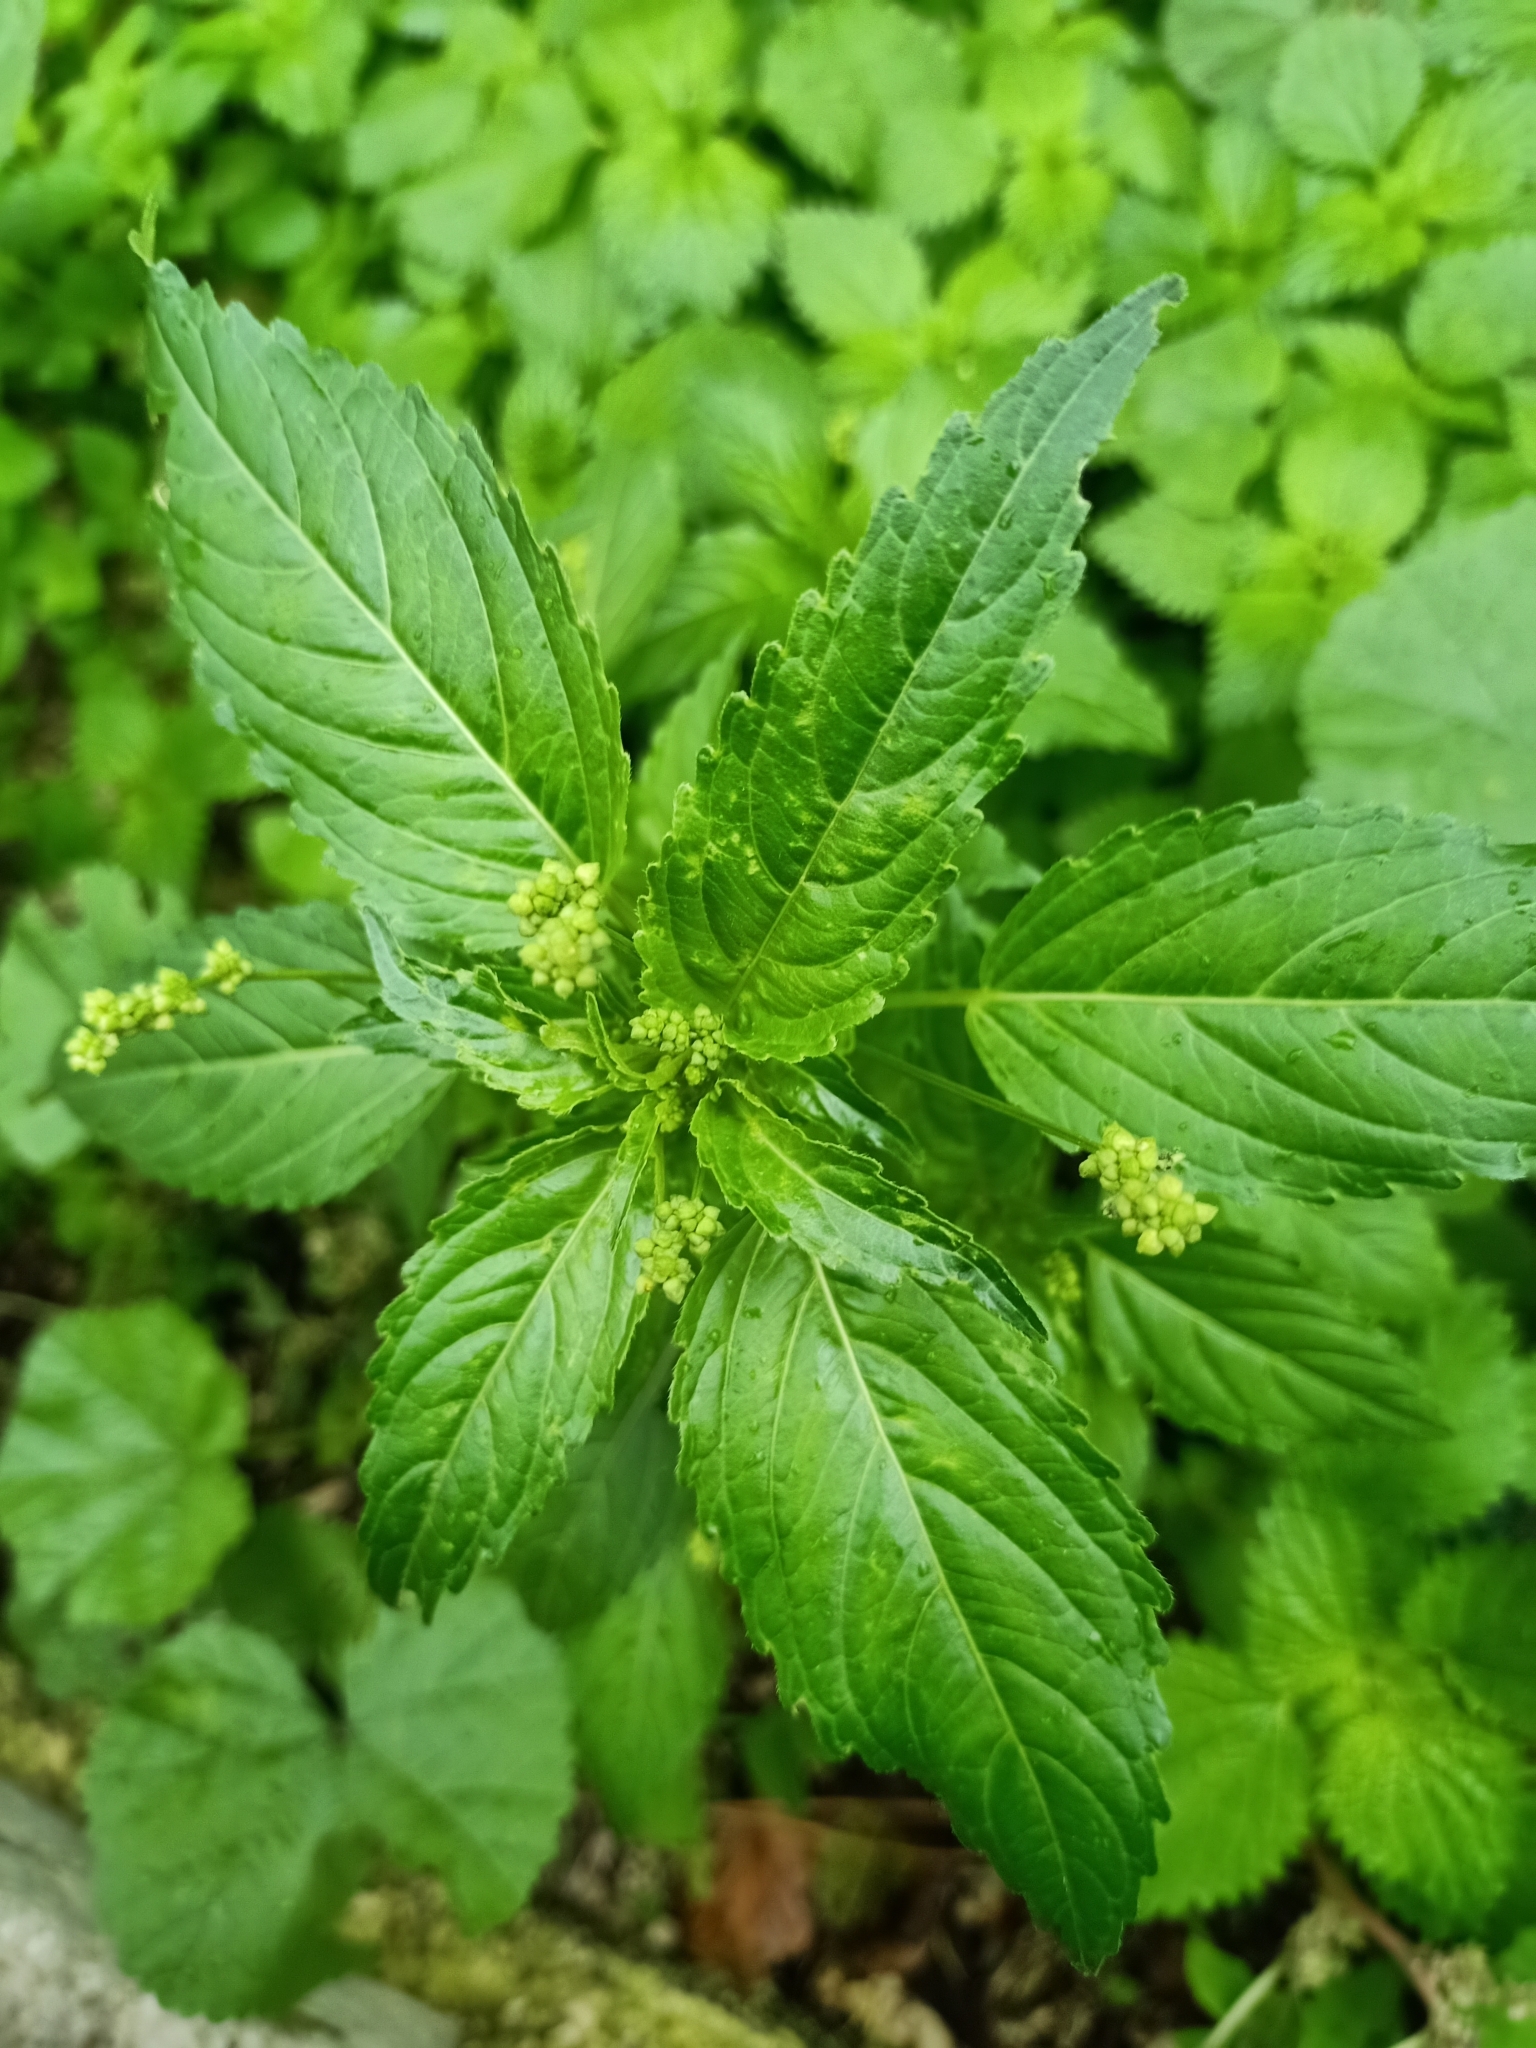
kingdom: Plantae
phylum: Tracheophyta
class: Magnoliopsida
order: Malpighiales
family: Euphorbiaceae
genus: Mercurialis
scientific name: Mercurialis annua
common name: Annual mercury
